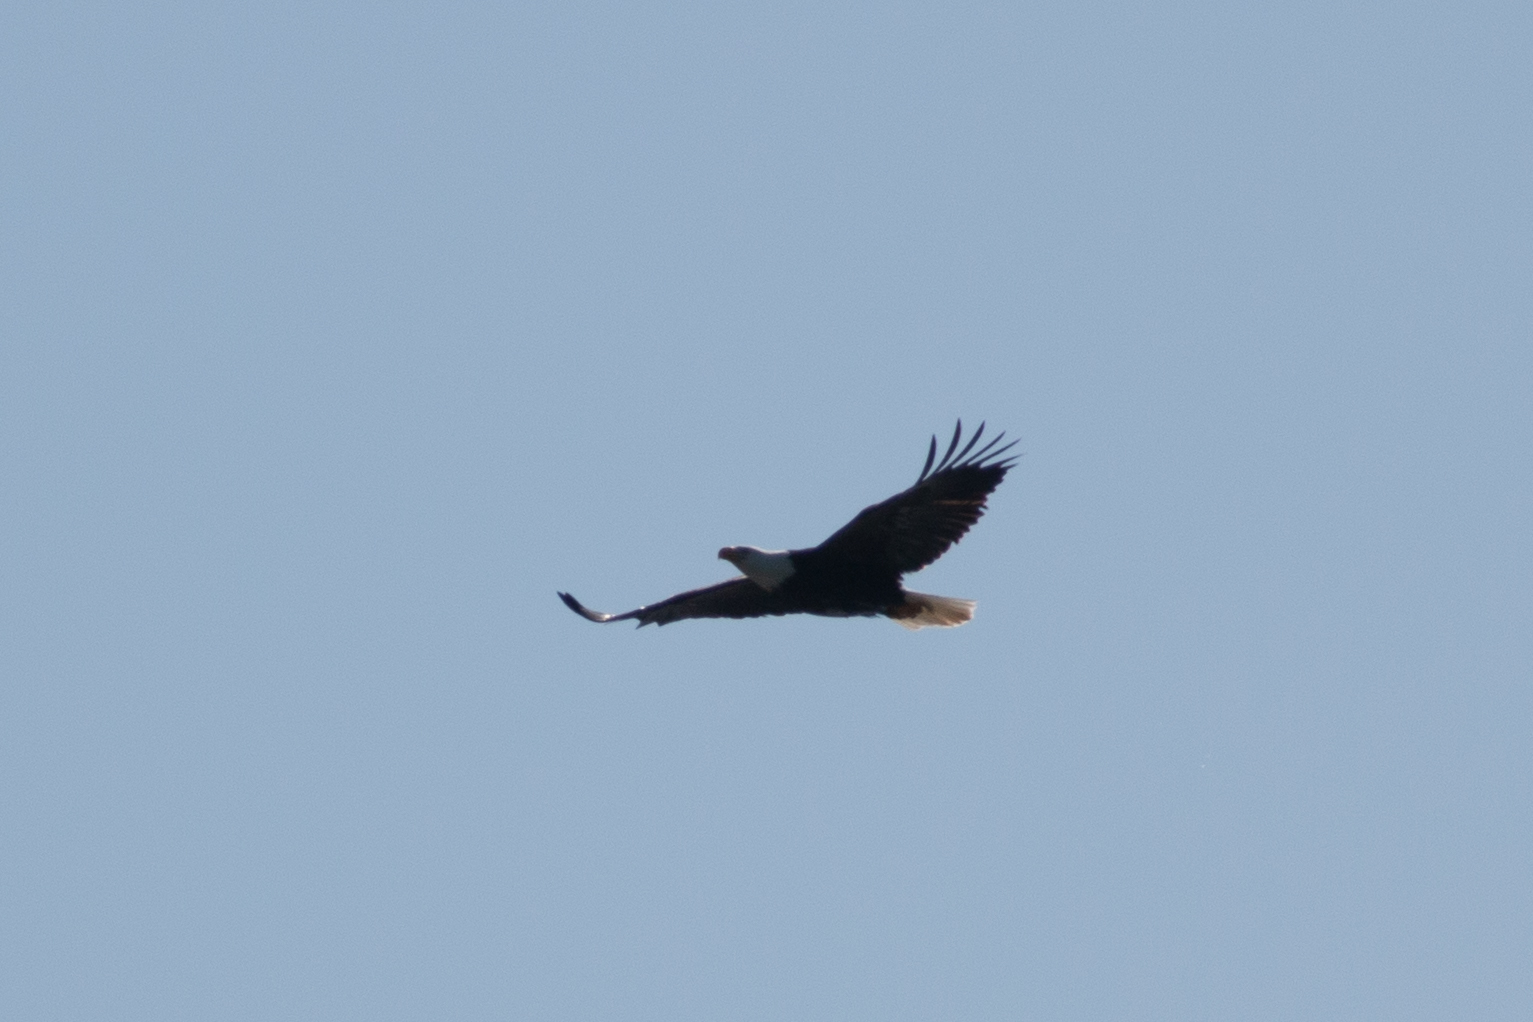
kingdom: Animalia
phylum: Chordata
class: Aves
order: Accipitriformes
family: Accipitridae
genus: Haliaeetus
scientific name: Haliaeetus leucocephalus
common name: Bald eagle
